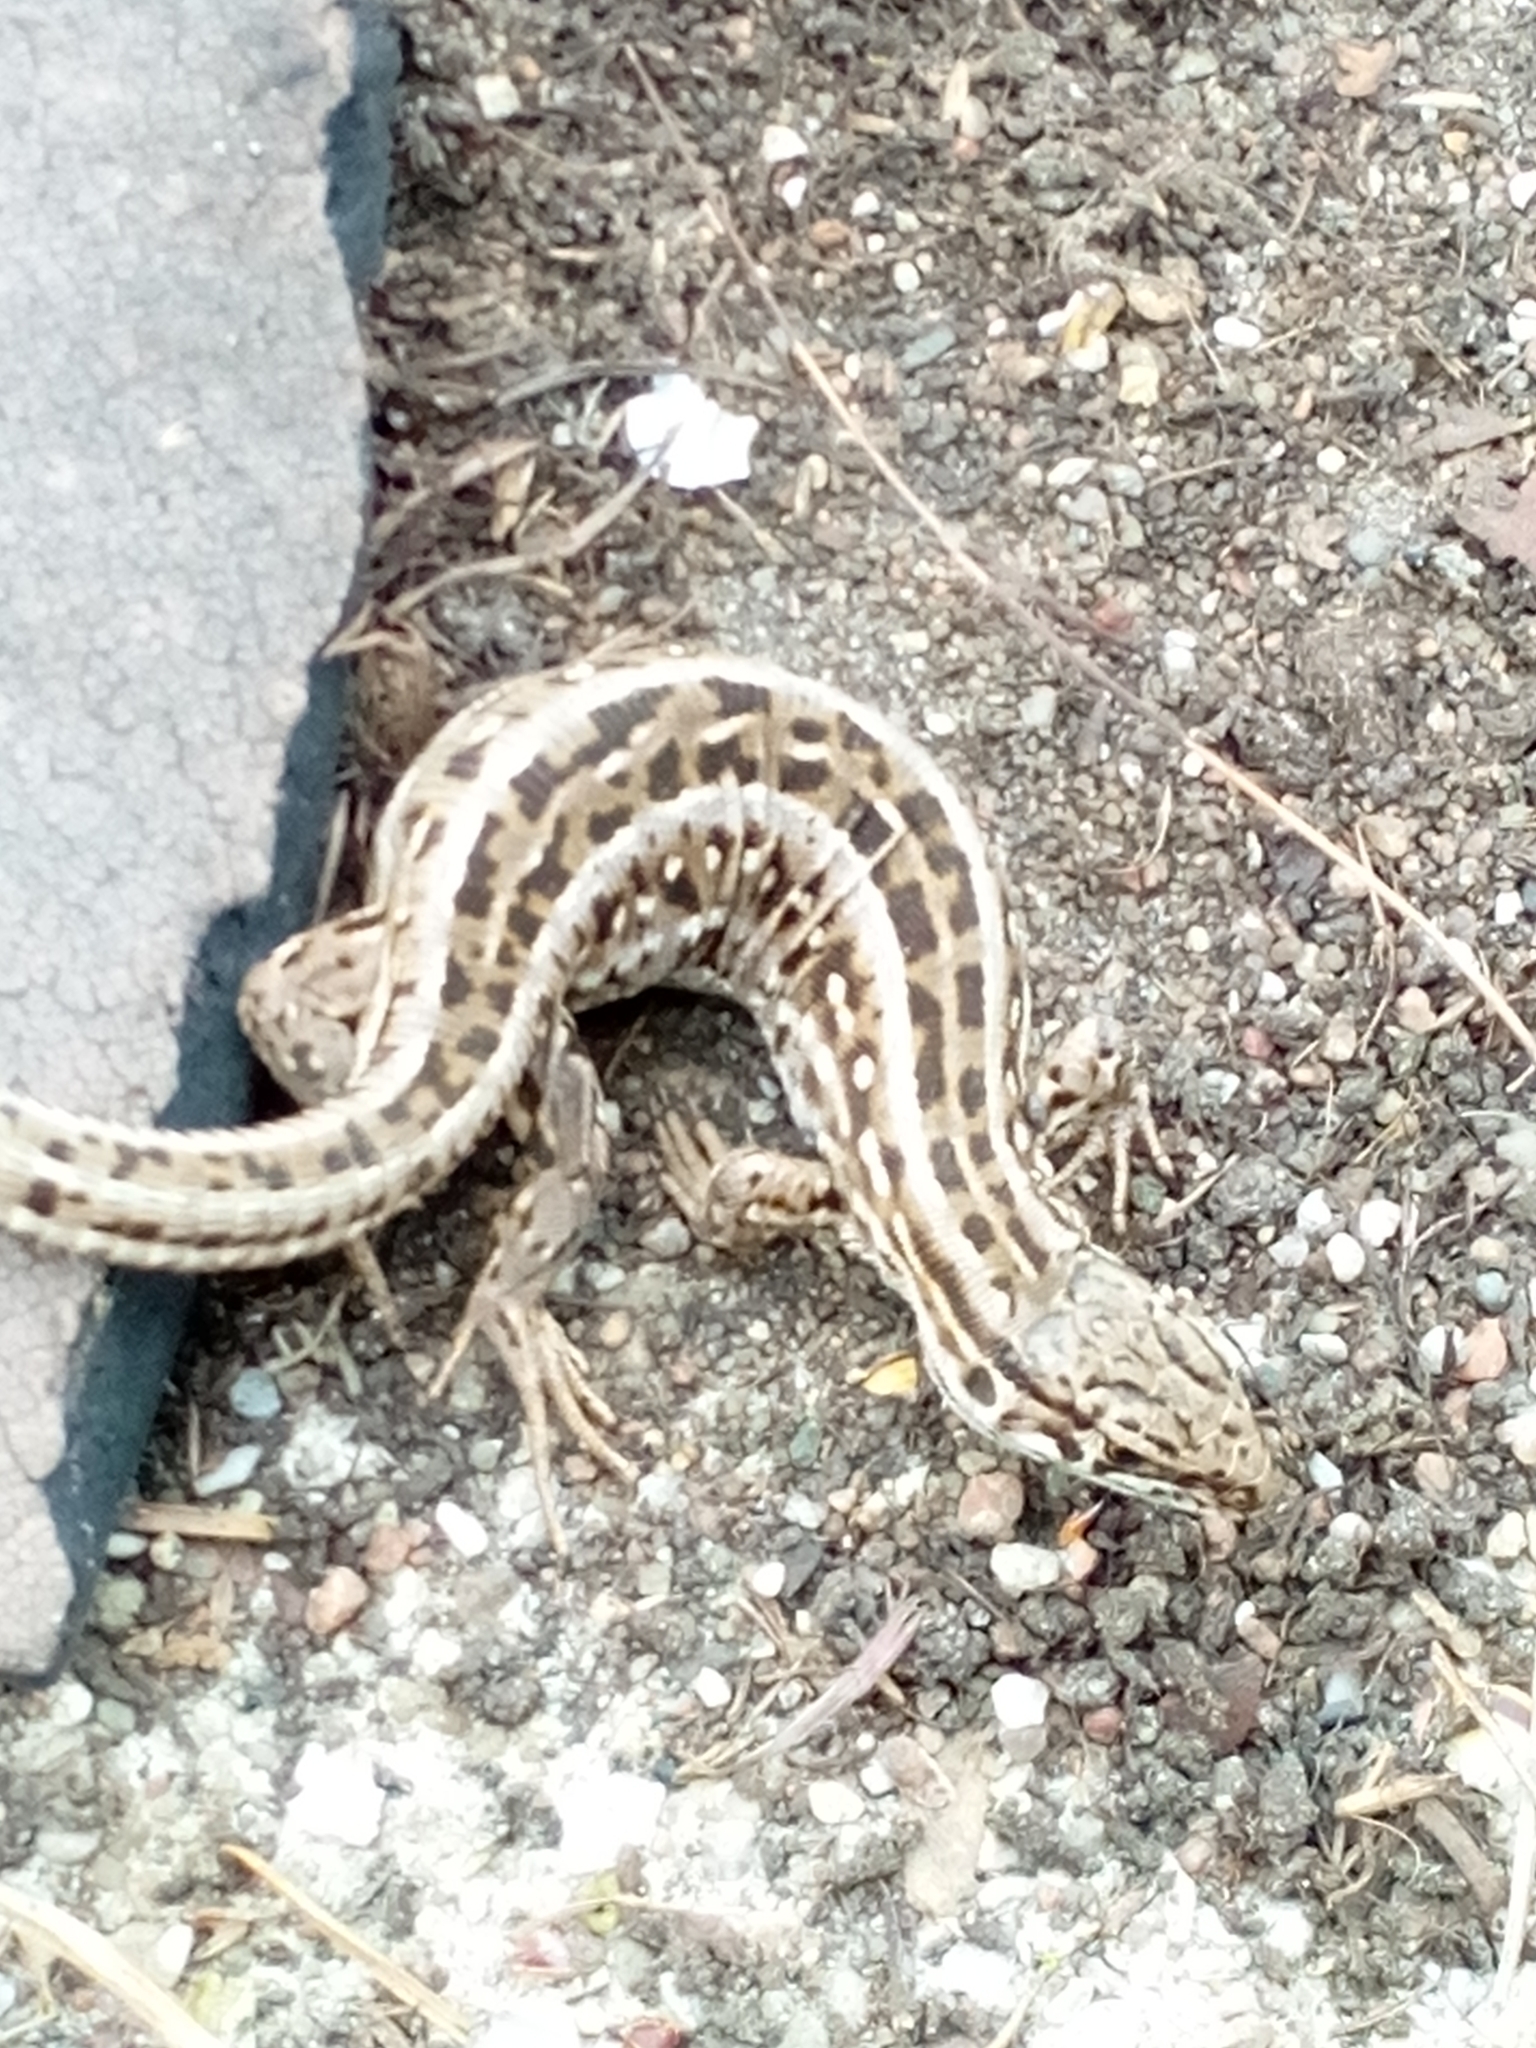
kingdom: Animalia
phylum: Chordata
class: Squamata
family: Lacertidae
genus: Lacerta
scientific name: Lacerta agilis
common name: Sand lizard
